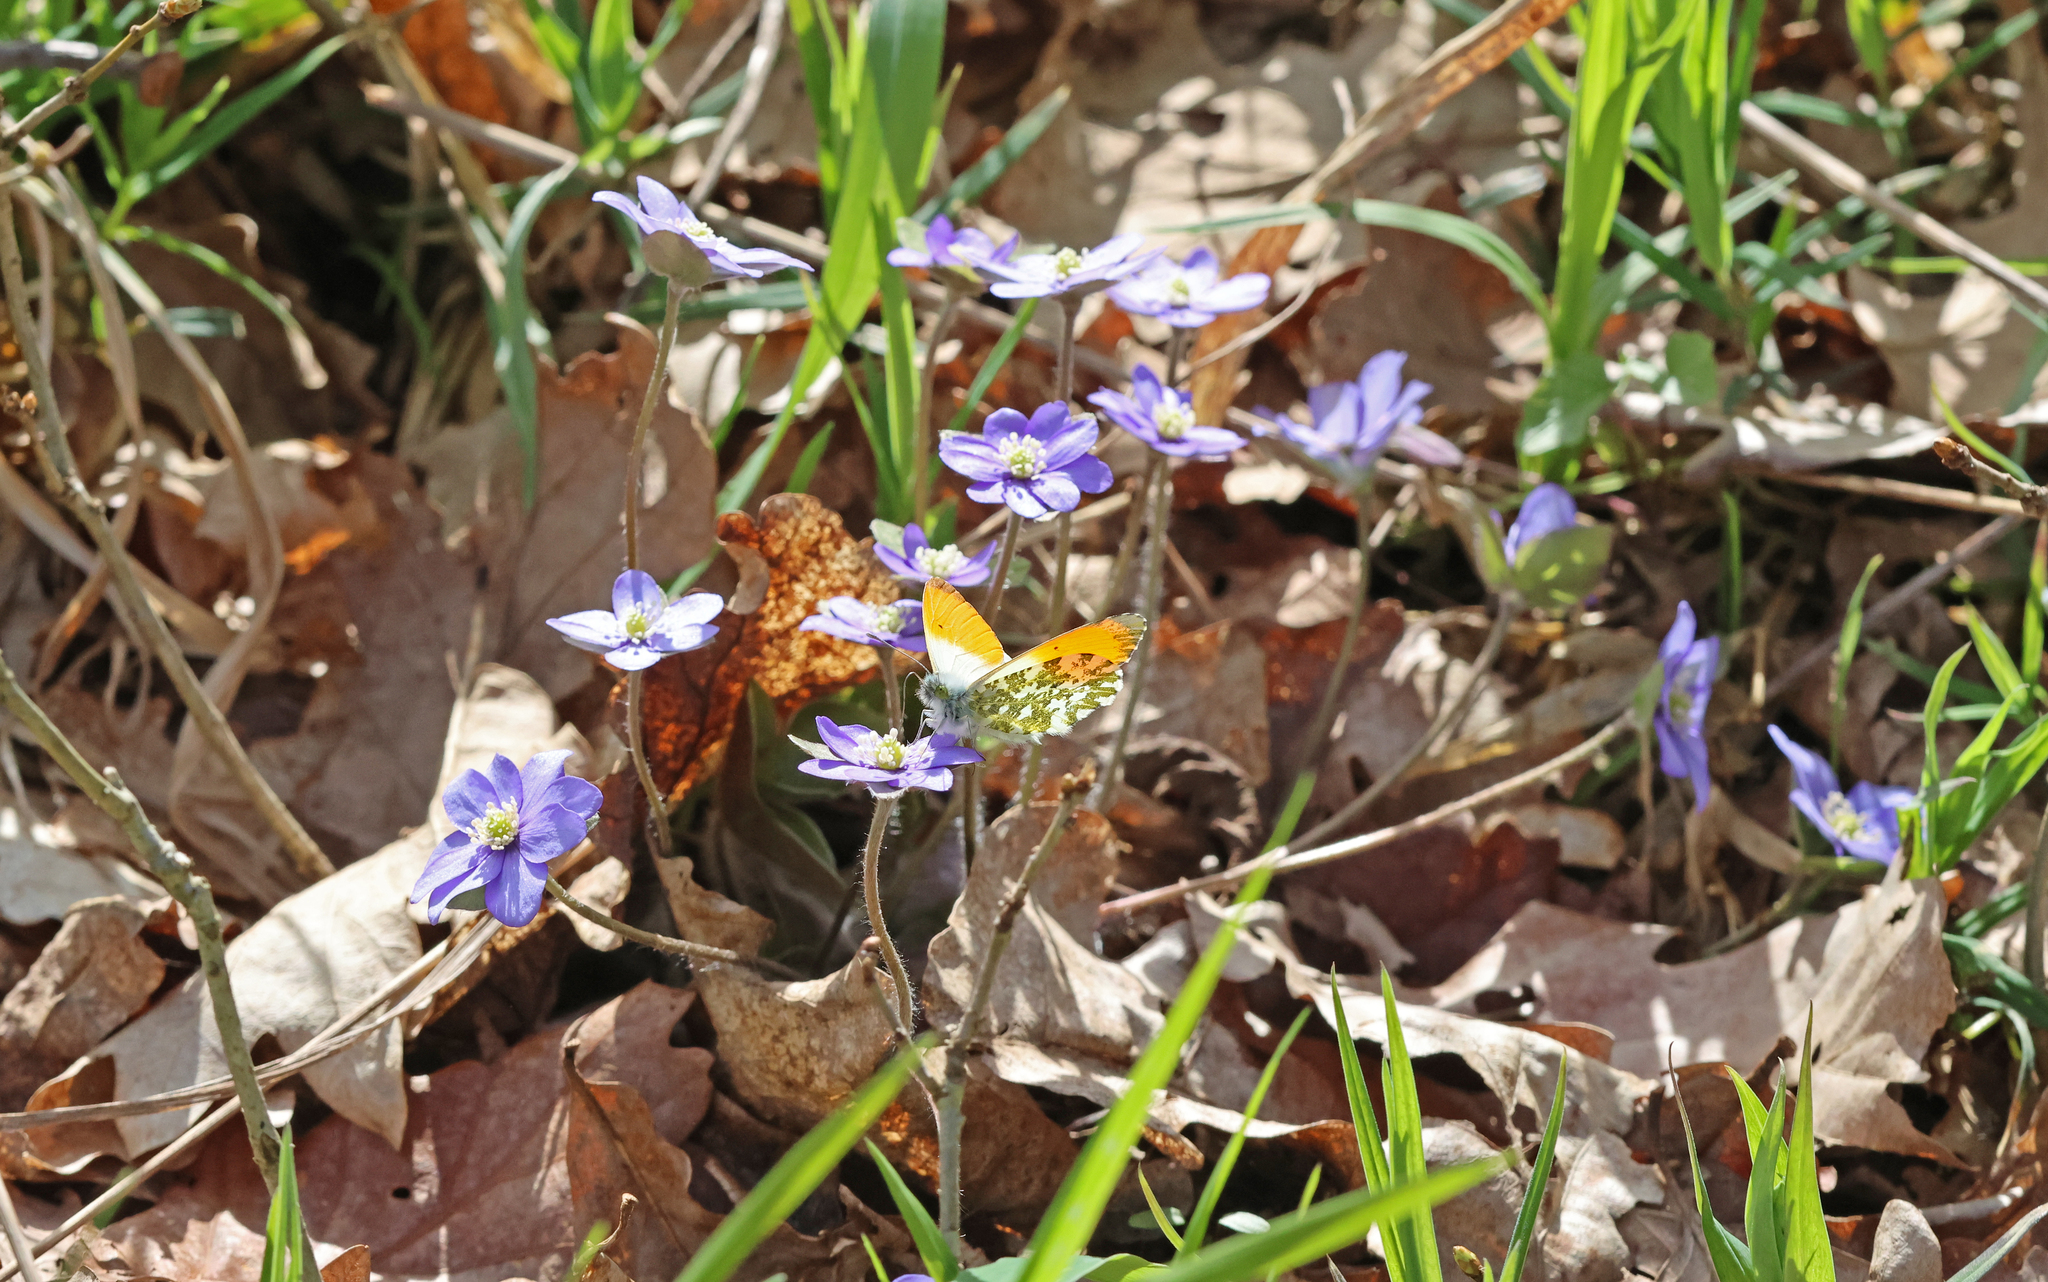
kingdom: Animalia
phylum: Arthropoda
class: Insecta
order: Lepidoptera
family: Pieridae
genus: Anthocharis
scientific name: Anthocharis cardamines
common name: Orange-tip
